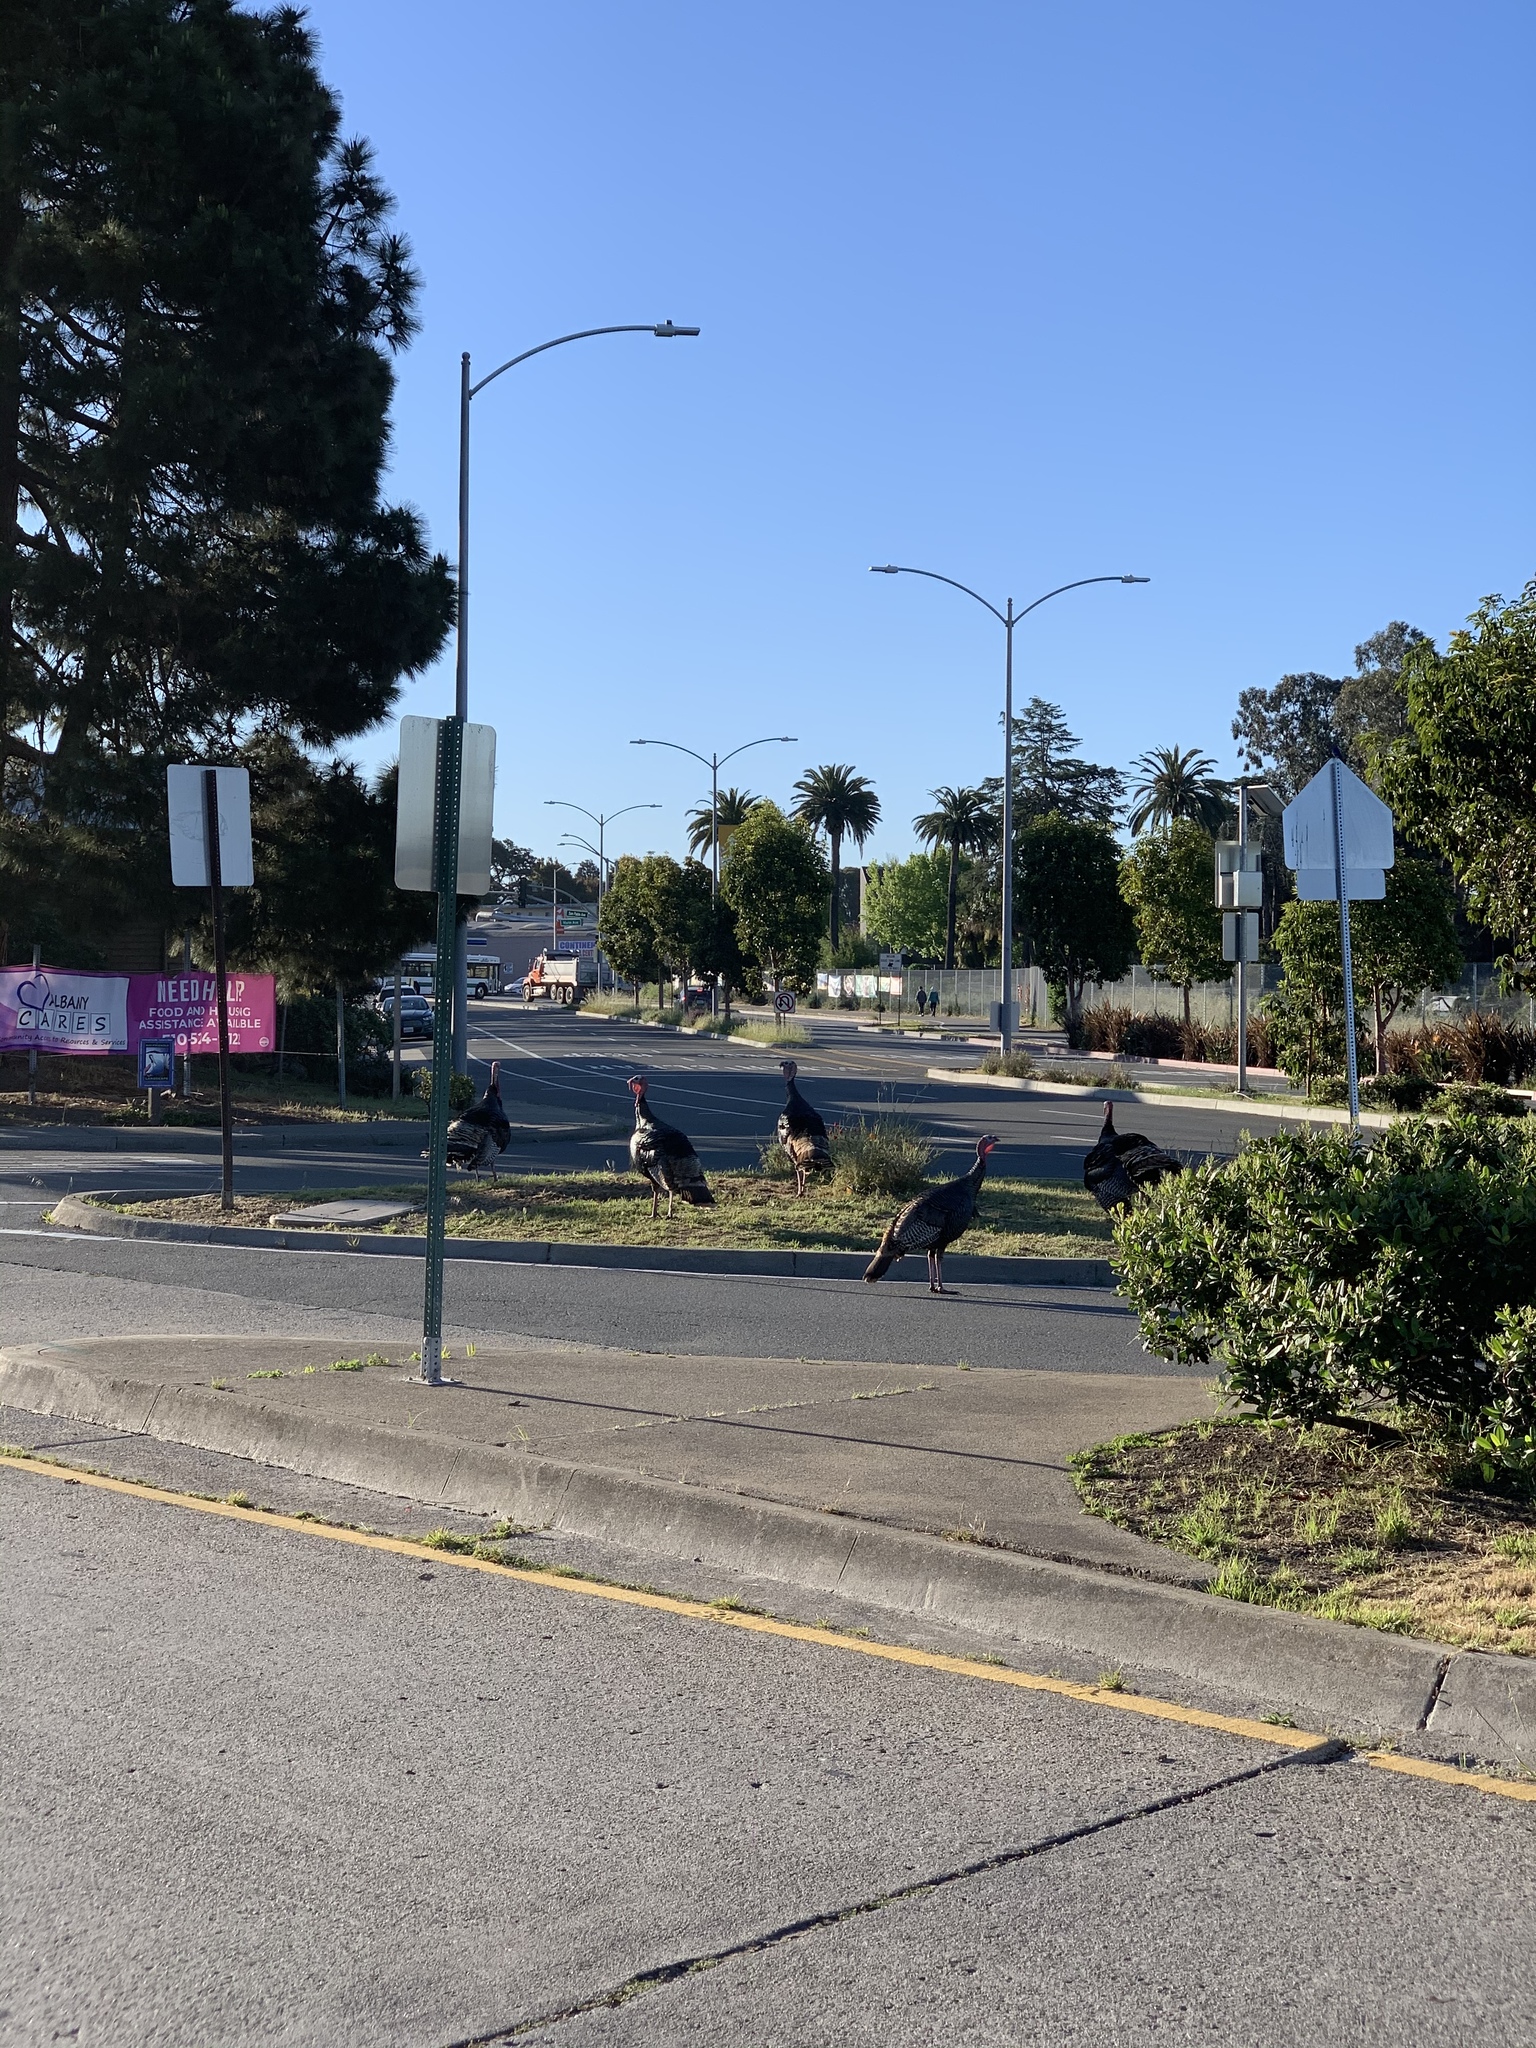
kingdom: Animalia
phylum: Chordata
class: Aves
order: Galliformes
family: Phasianidae
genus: Meleagris
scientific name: Meleagris gallopavo
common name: Wild turkey
